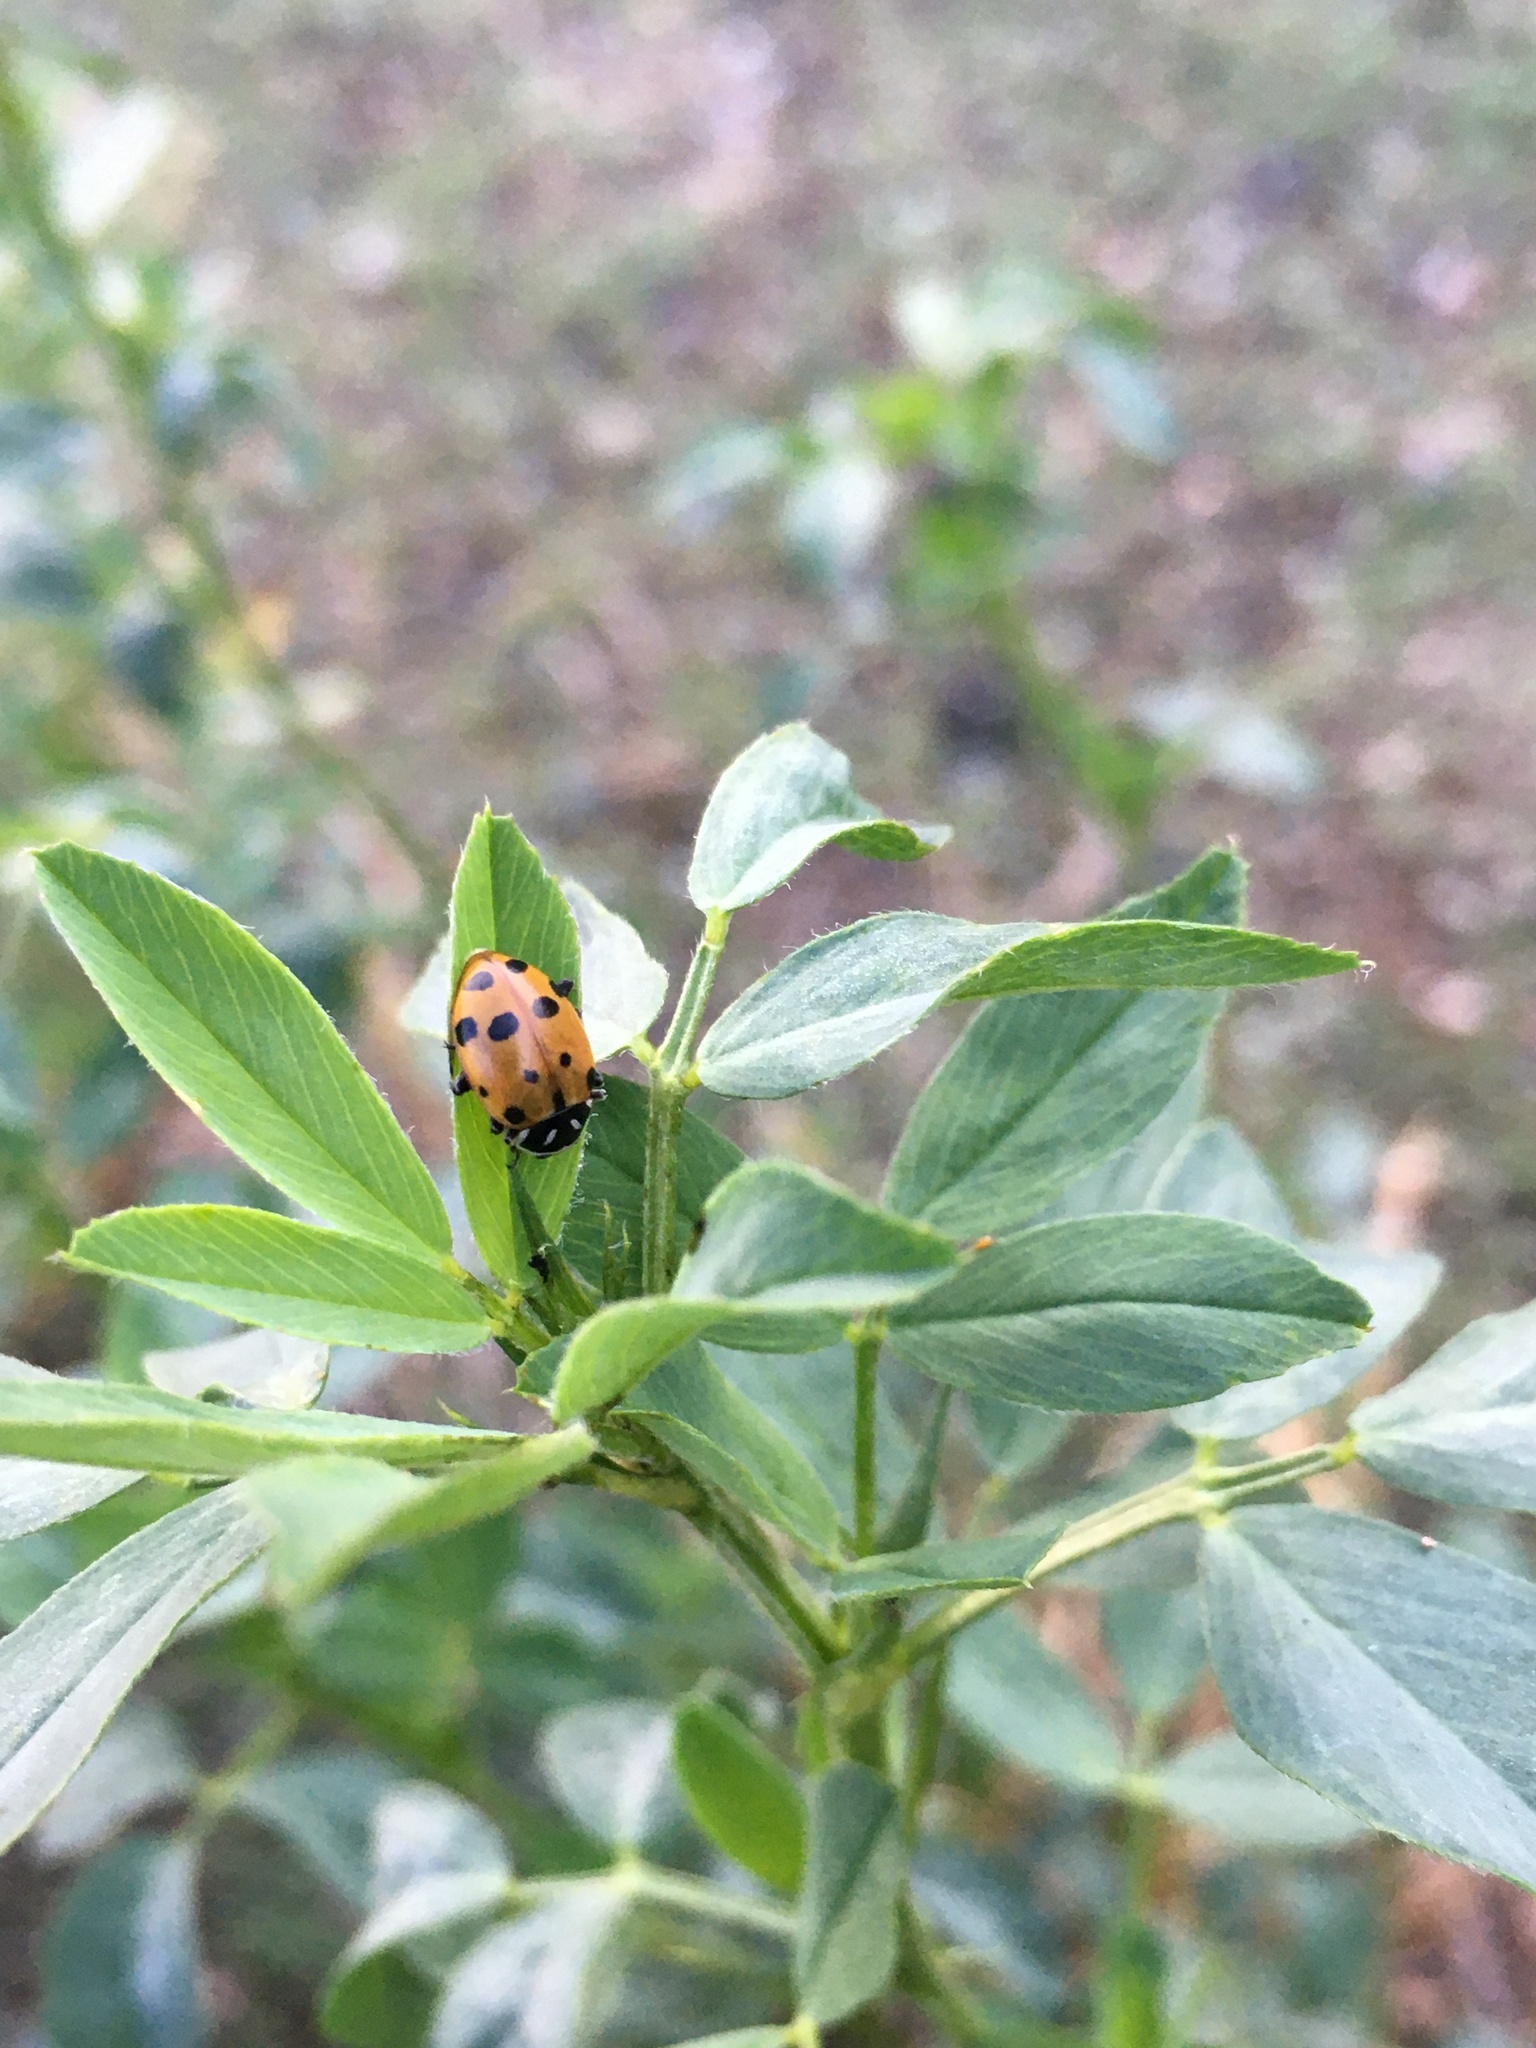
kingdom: Animalia
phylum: Arthropoda
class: Insecta
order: Coleoptera
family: Coccinellidae
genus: Hippodamia
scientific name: Hippodamia convergens
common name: Convergent lady beetle
